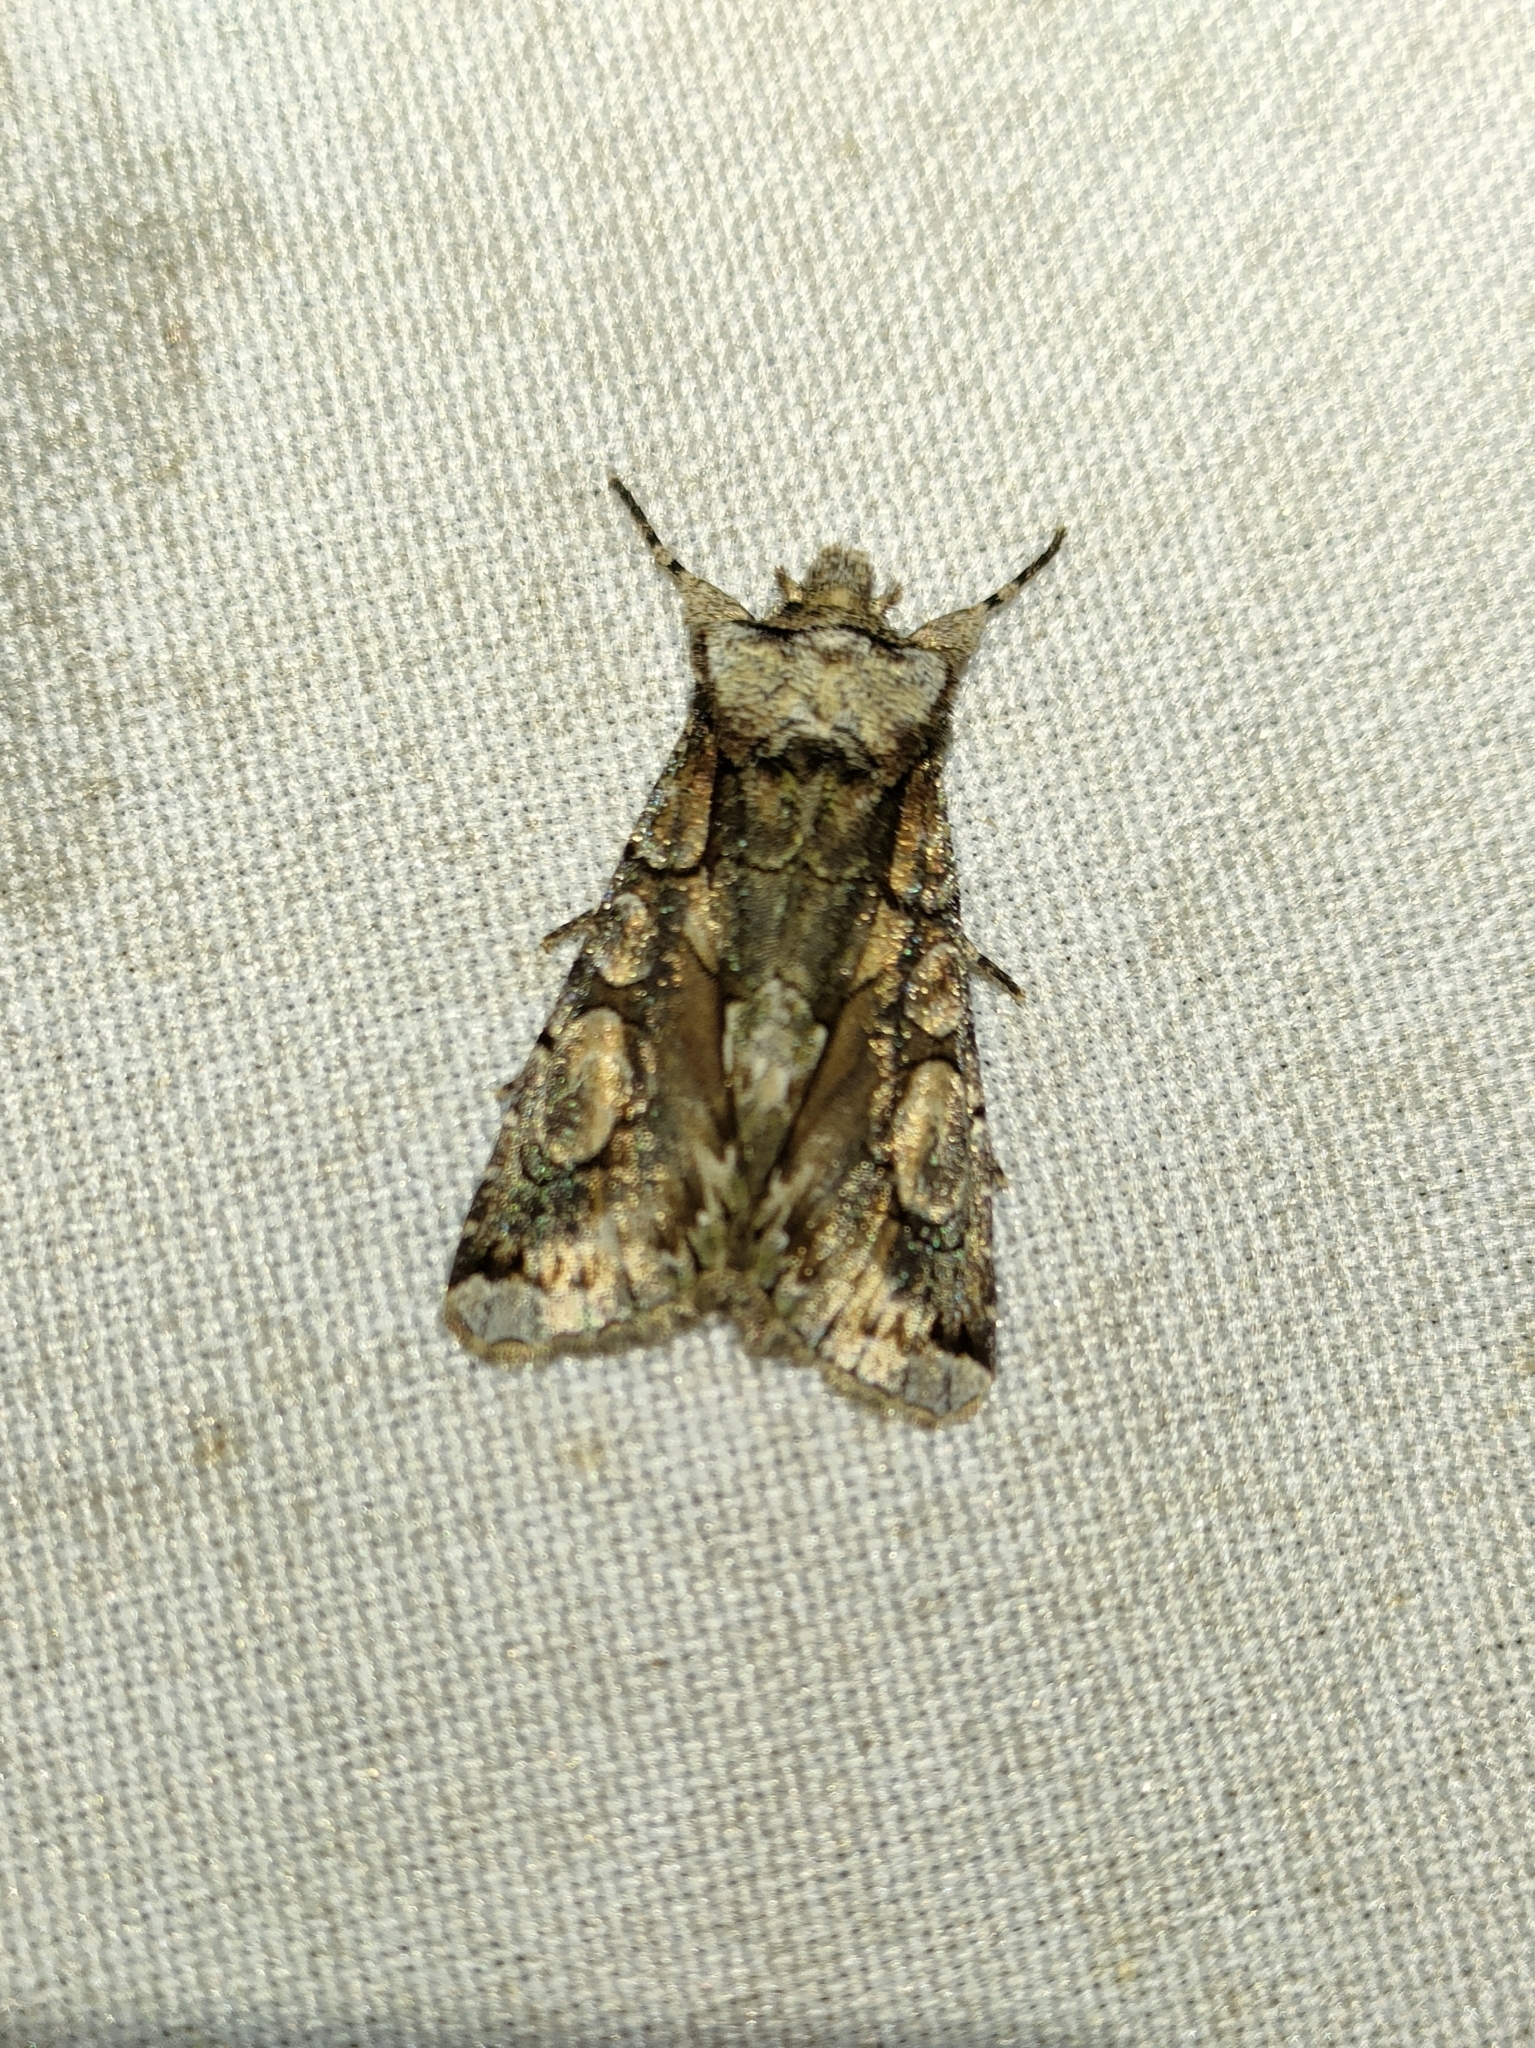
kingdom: Animalia
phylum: Arthropoda
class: Insecta
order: Lepidoptera
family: Noctuidae
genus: Allophyes
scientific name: Allophyes alfaroi
